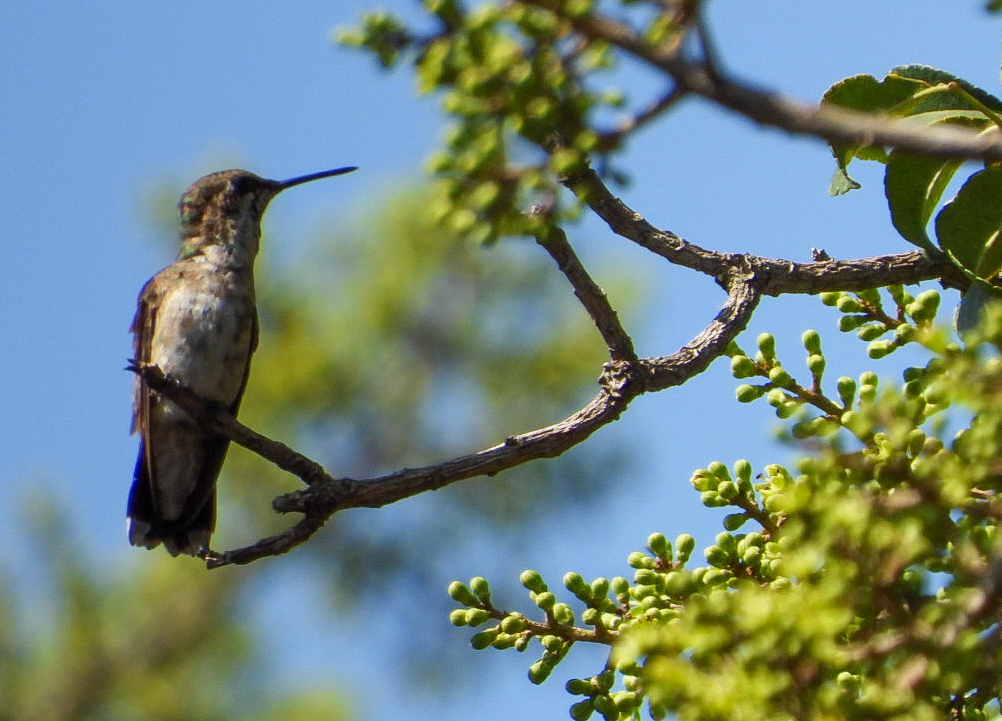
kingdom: Animalia
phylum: Chordata
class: Aves
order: Apodiformes
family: Trochilidae
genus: Archilochus
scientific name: Archilochus colubris
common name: Ruby-throated hummingbird
